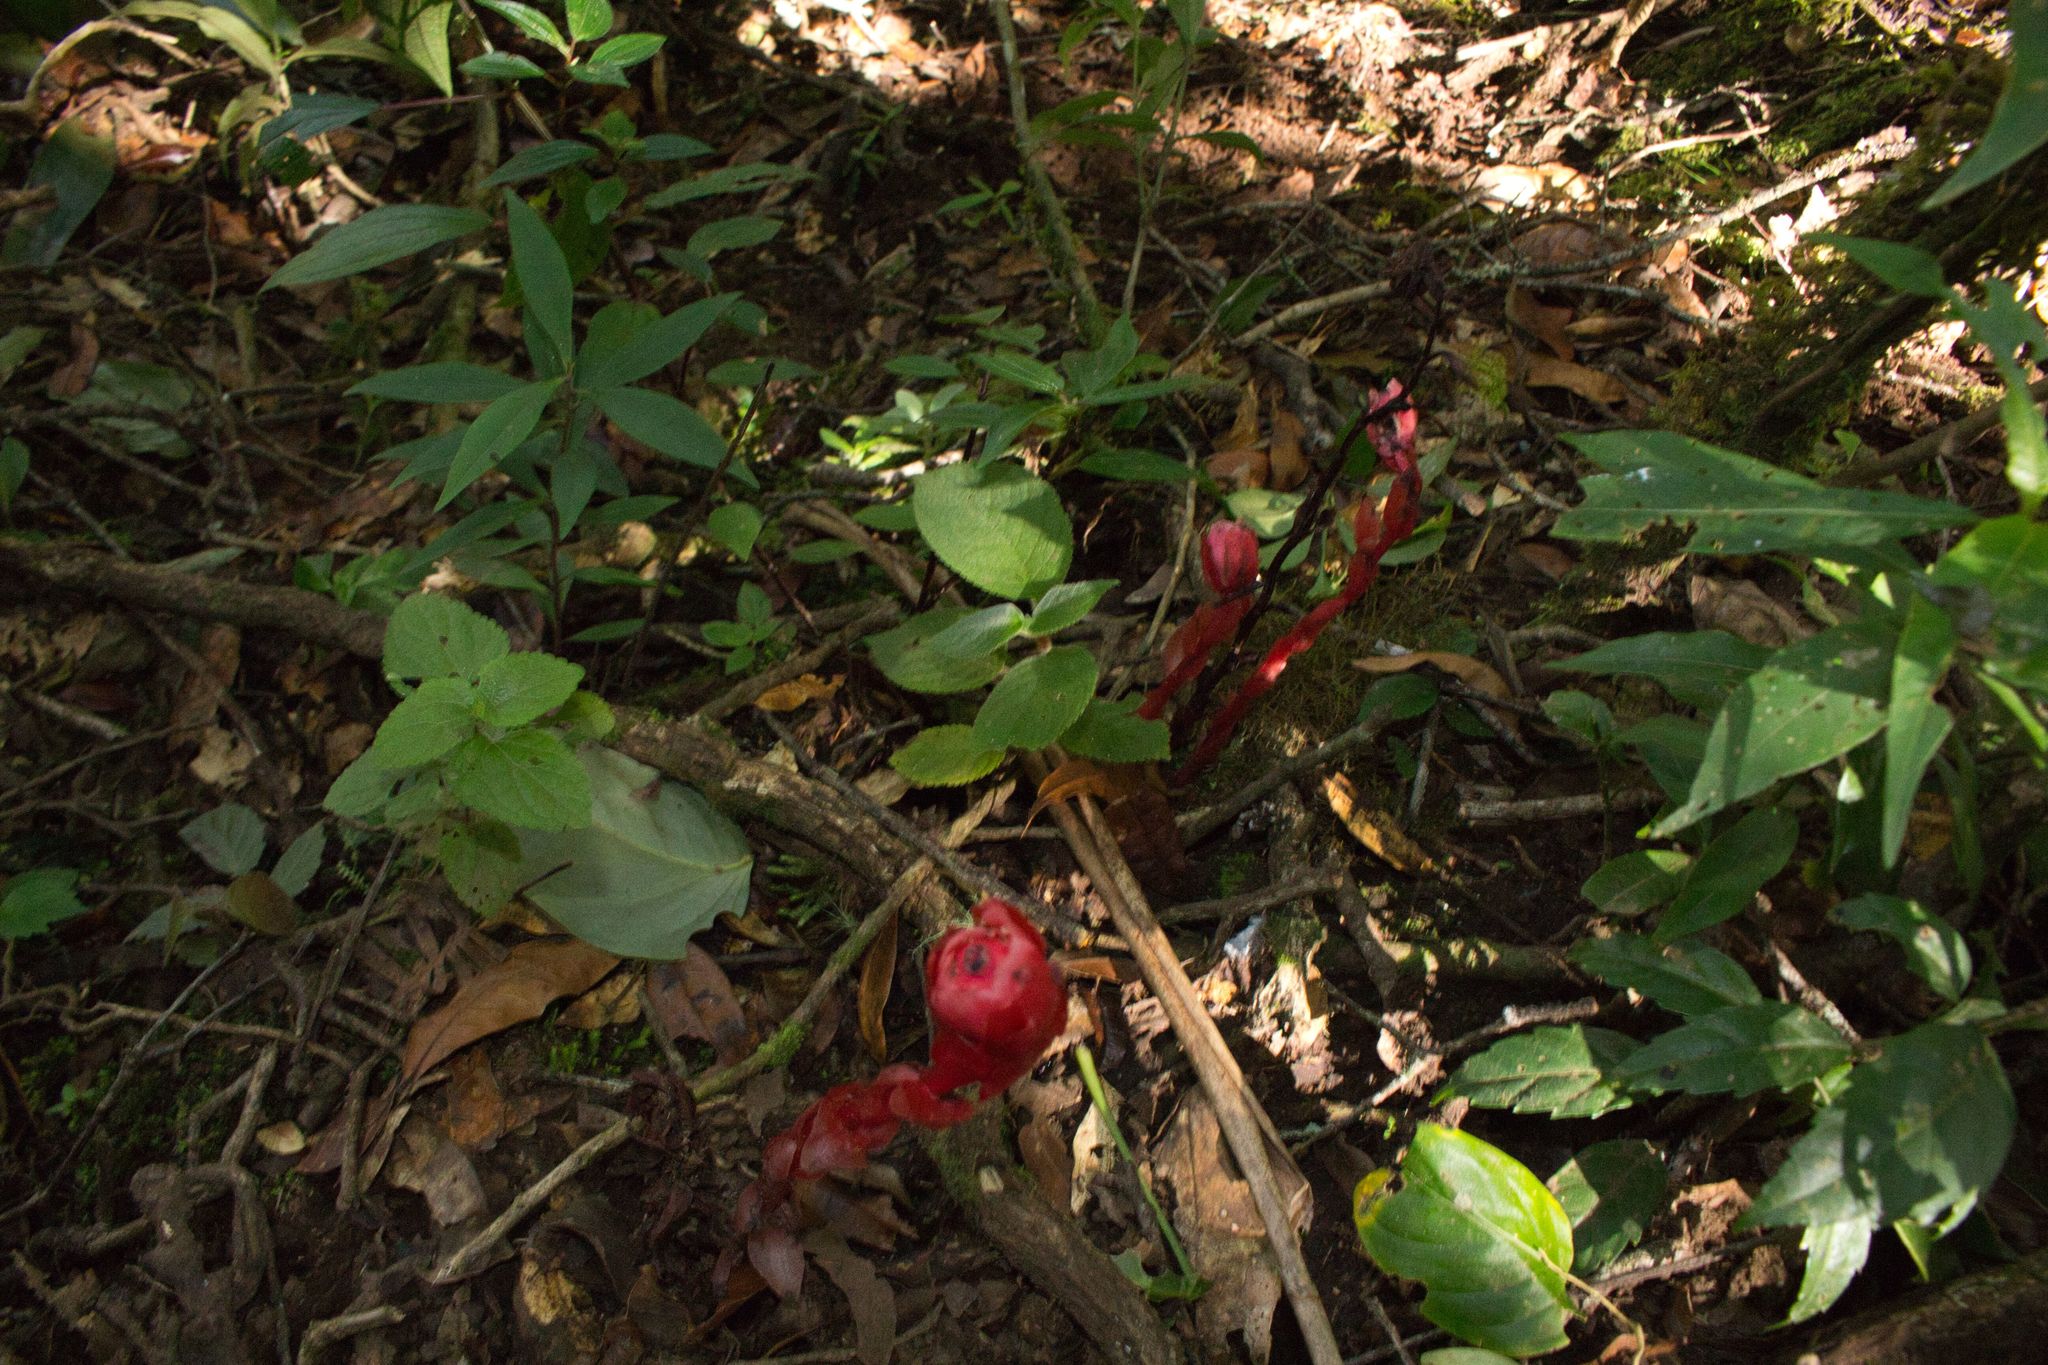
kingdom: Plantae
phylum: Tracheophyta
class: Magnoliopsida
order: Ericales
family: Ericaceae
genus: Monotropa
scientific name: Monotropa coccinea
